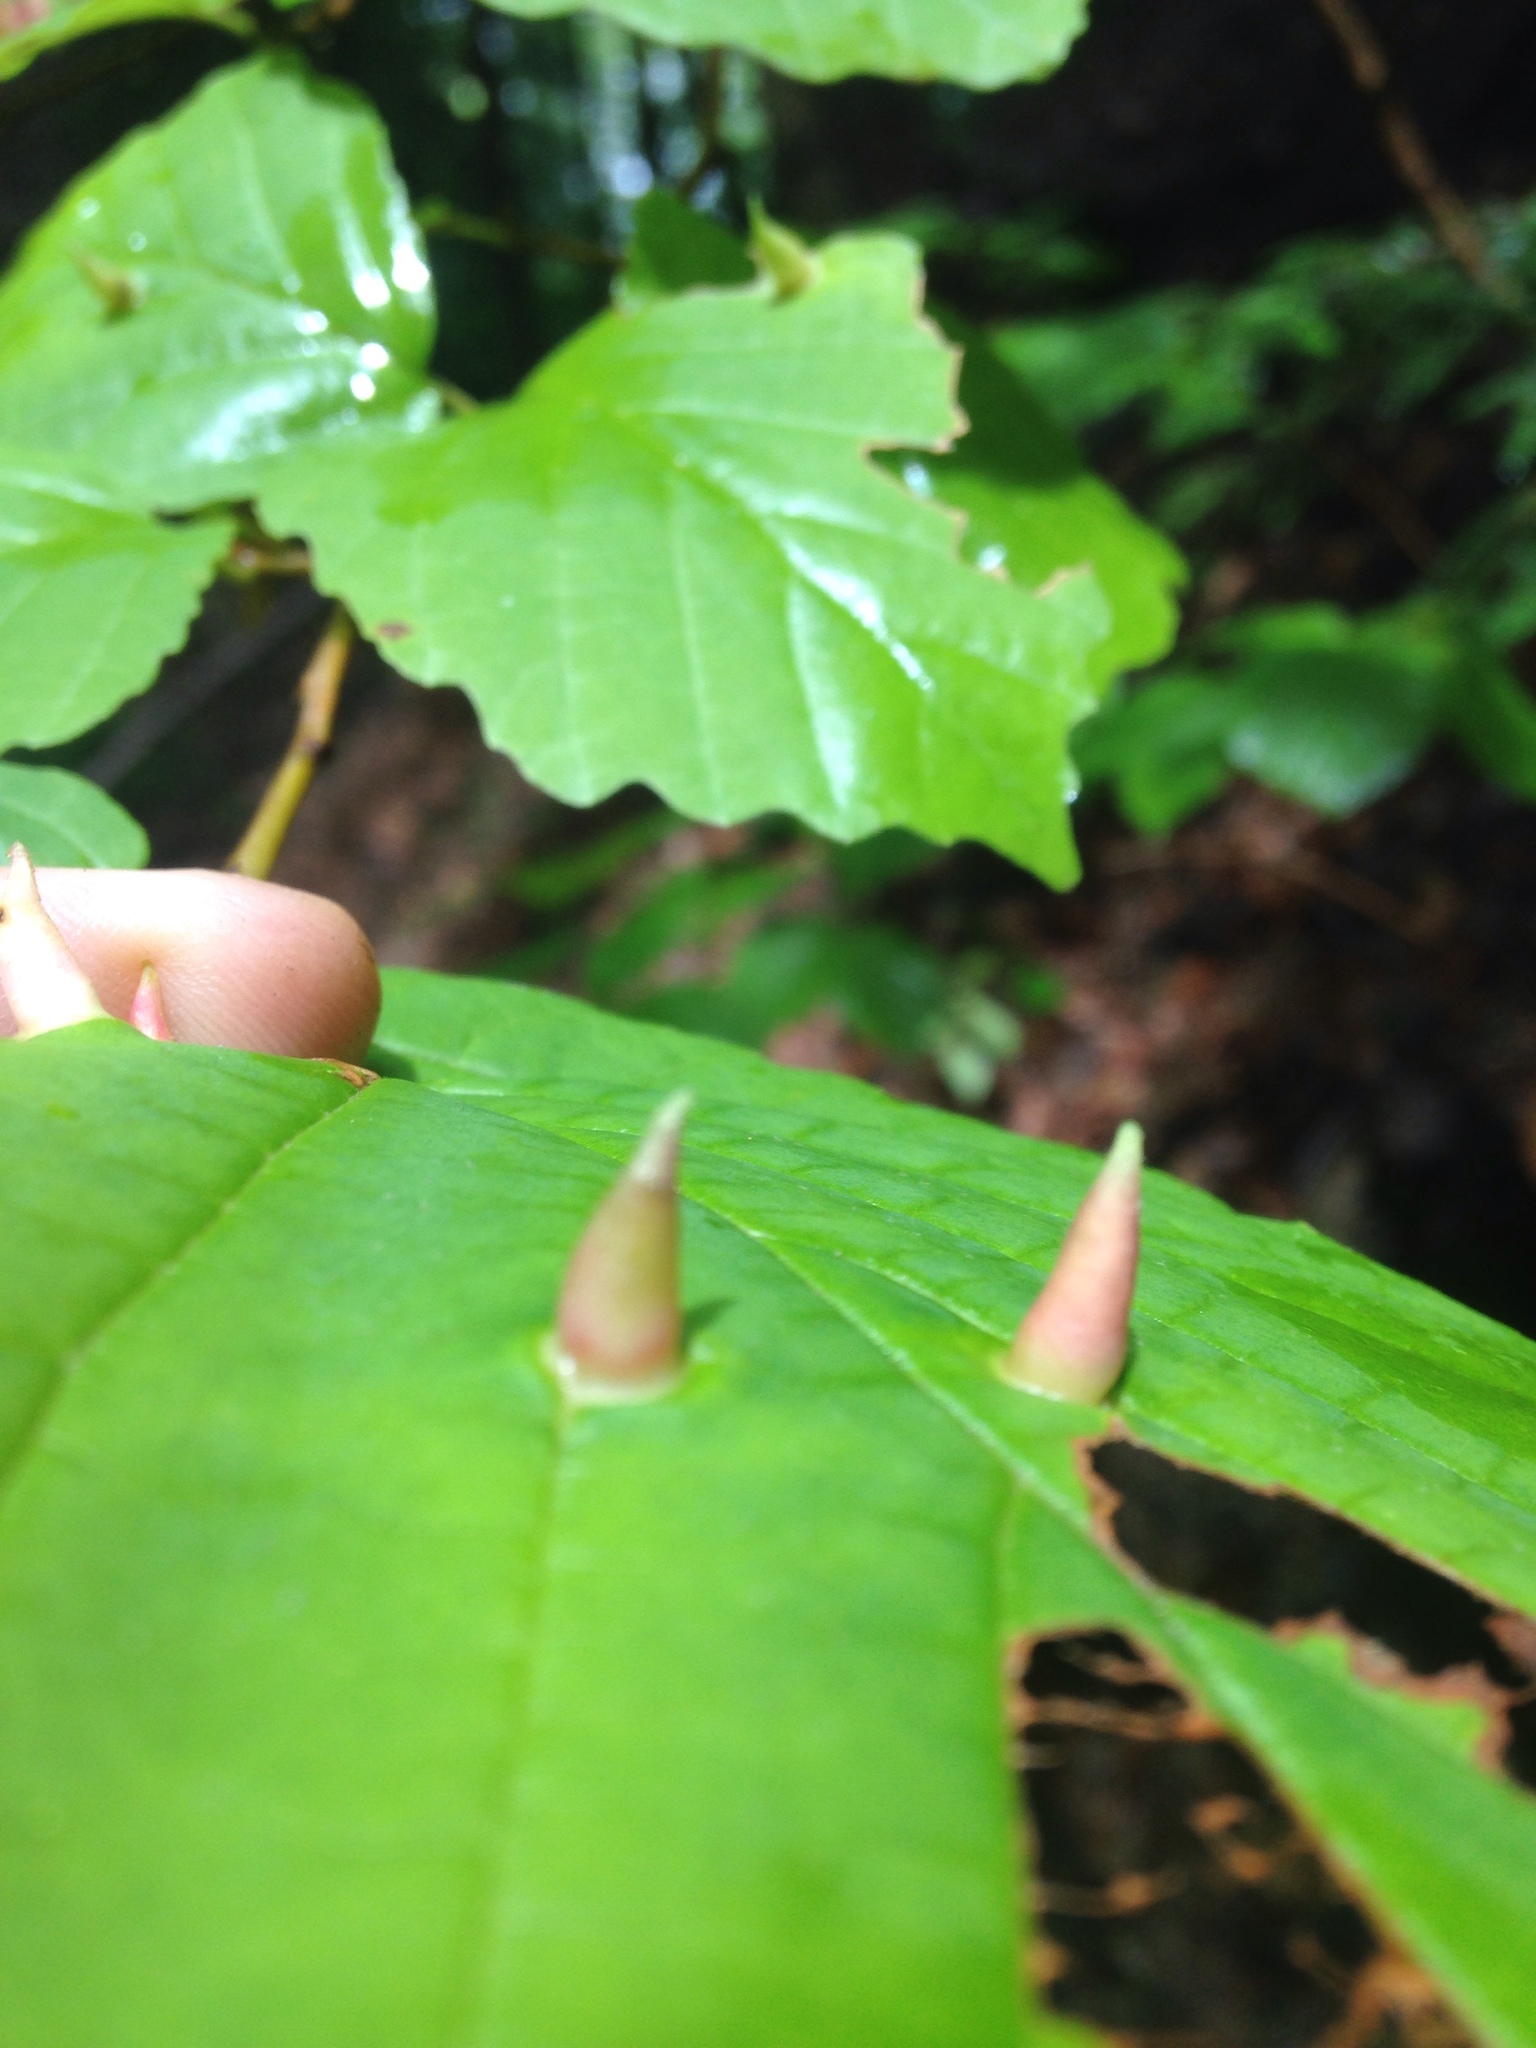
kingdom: Animalia
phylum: Arthropoda
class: Insecta
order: Hemiptera
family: Aphididae
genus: Hormaphis
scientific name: Hormaphis hamamelidis
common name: Witch-hazel cone gall aphid
